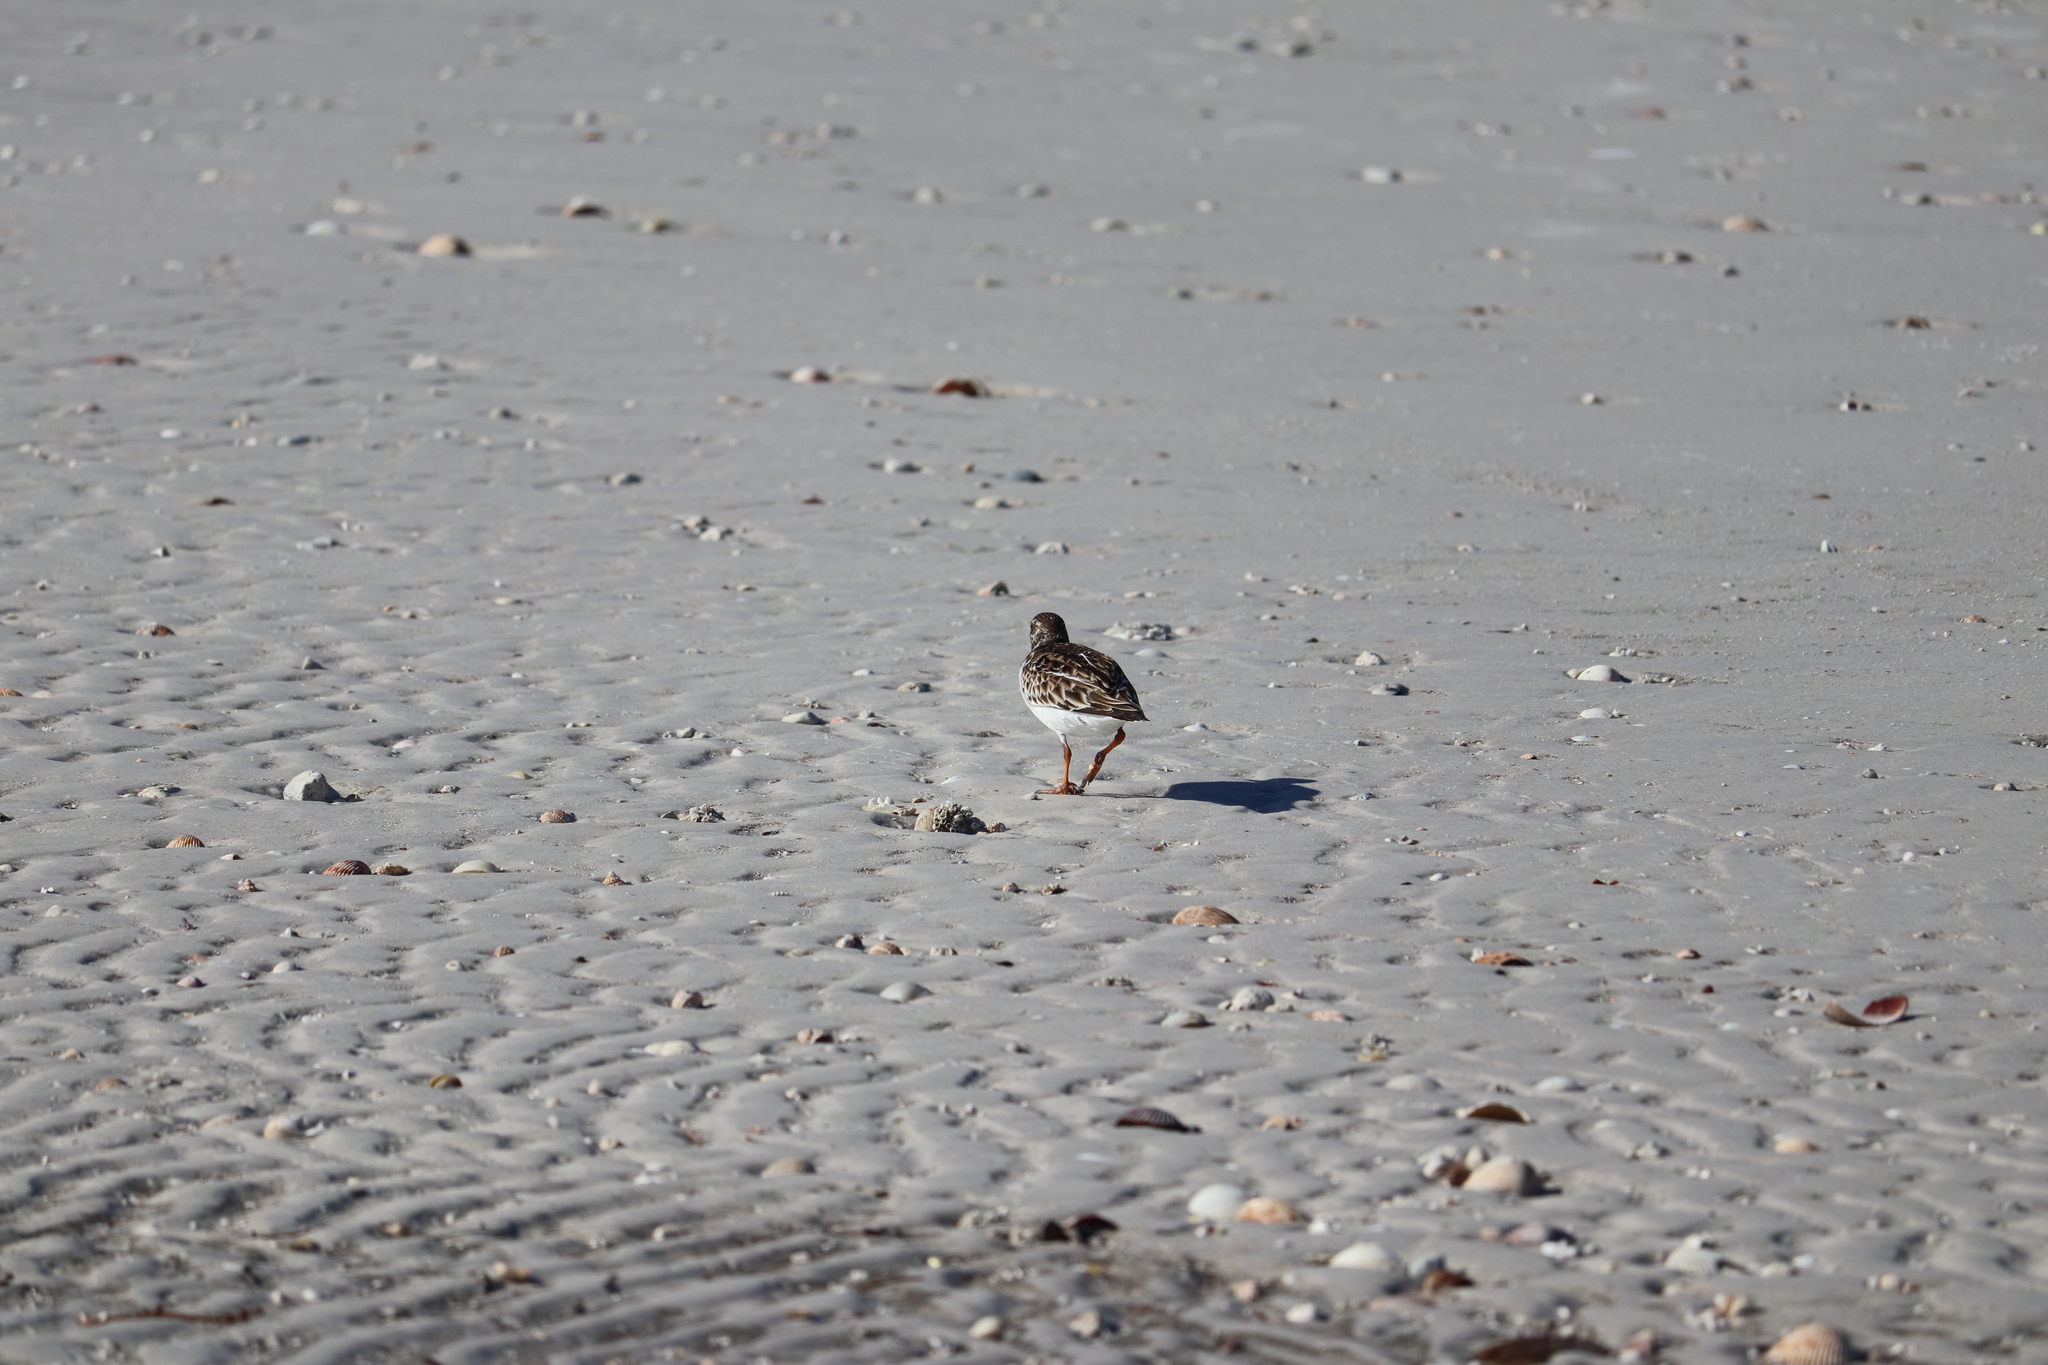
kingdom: Animalia
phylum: Chordata
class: Aves
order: Charadriiformes
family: Scolopacidae
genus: Arenaria
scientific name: Arenaria interpres
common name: Ruddy turnstone
